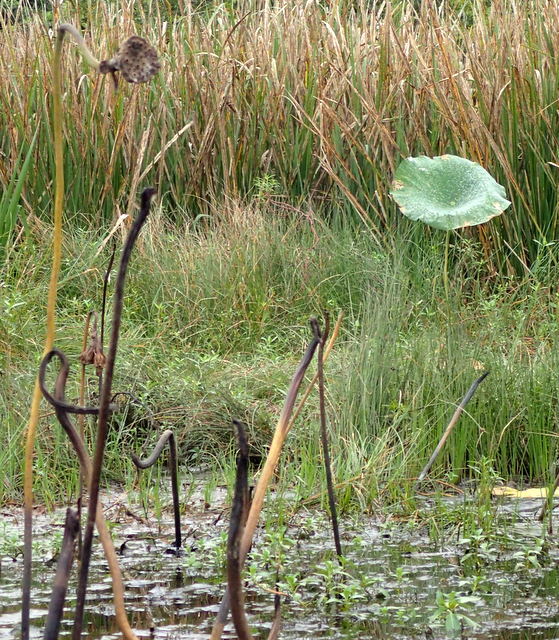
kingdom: Plantae
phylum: Tracheophyta
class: Magnoliopsida
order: Proteales
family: Nelumbonaceae
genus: Nelumbo
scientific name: Nelumbo lutea
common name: American lotus
